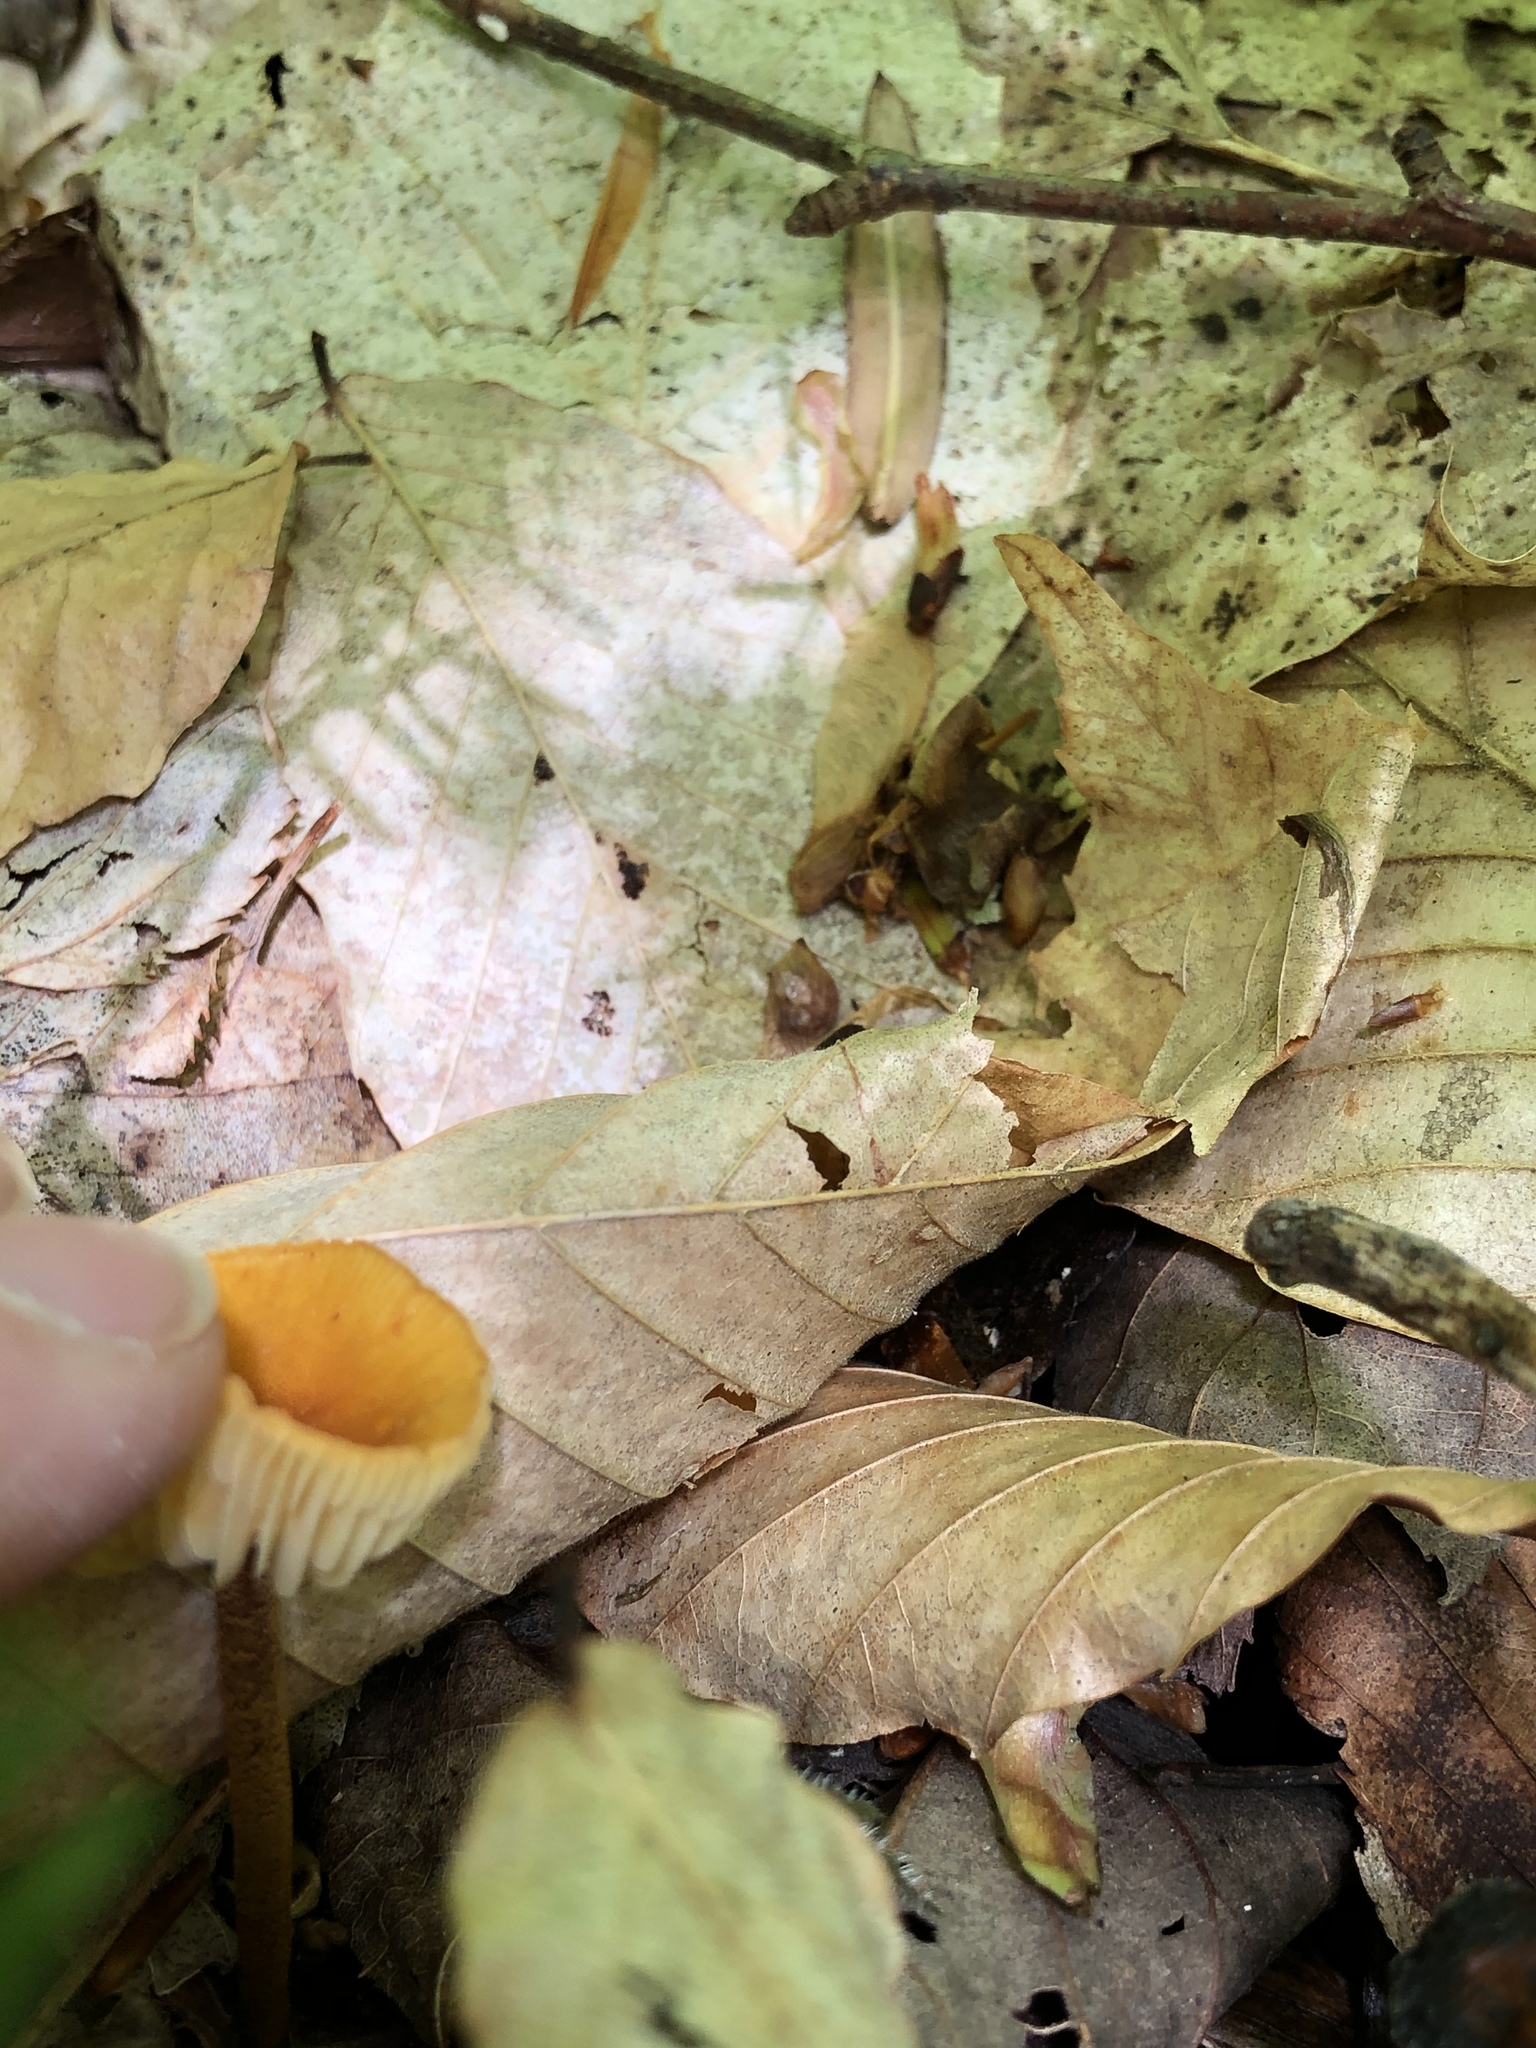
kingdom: Fungi
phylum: Basidiomycota
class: Agaricomycetes
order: Agaricales
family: Mycenaceae
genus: Xeromphalina
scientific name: Xeromphalina tenuipes
